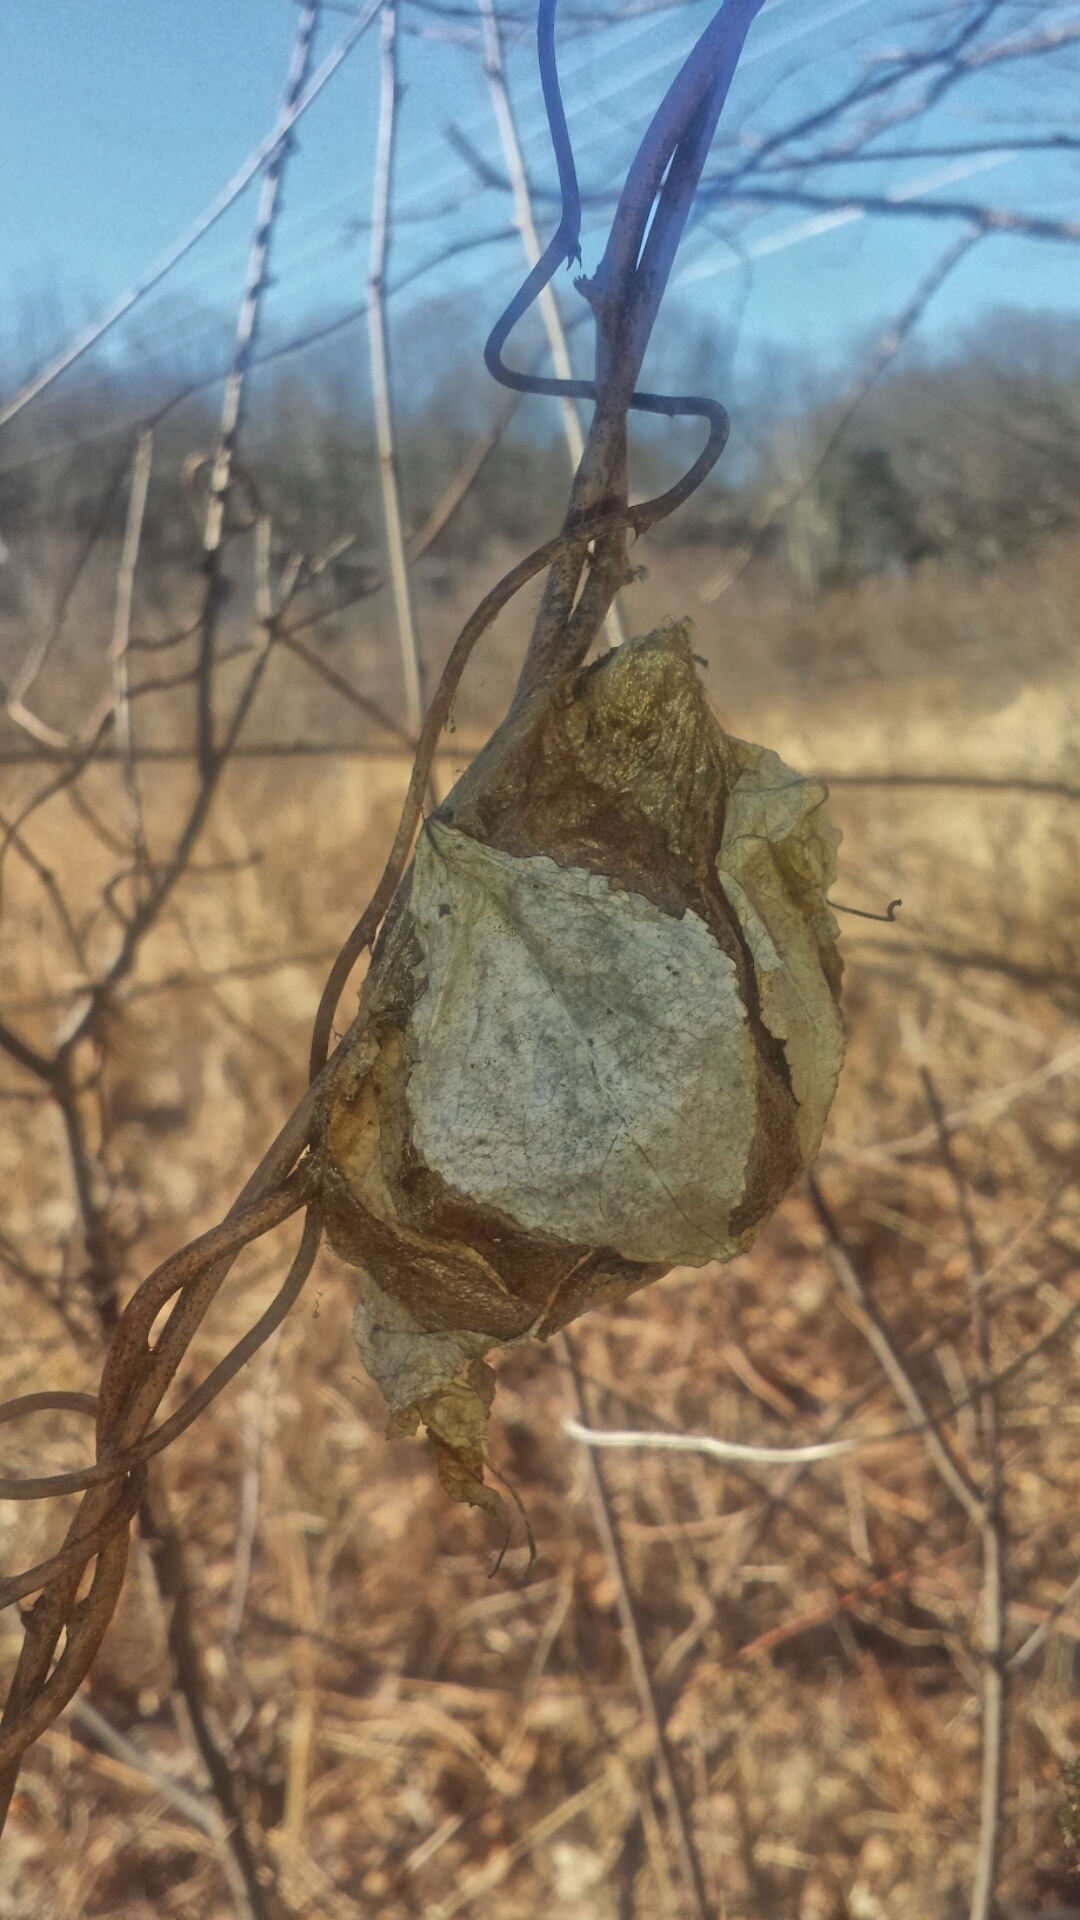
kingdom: Animalia
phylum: Arthropoda
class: Insecta
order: Lepidoptera
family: Saturniidae
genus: Hyalophora
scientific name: Hyalophora cecropia
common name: Cecropia silkmoth
